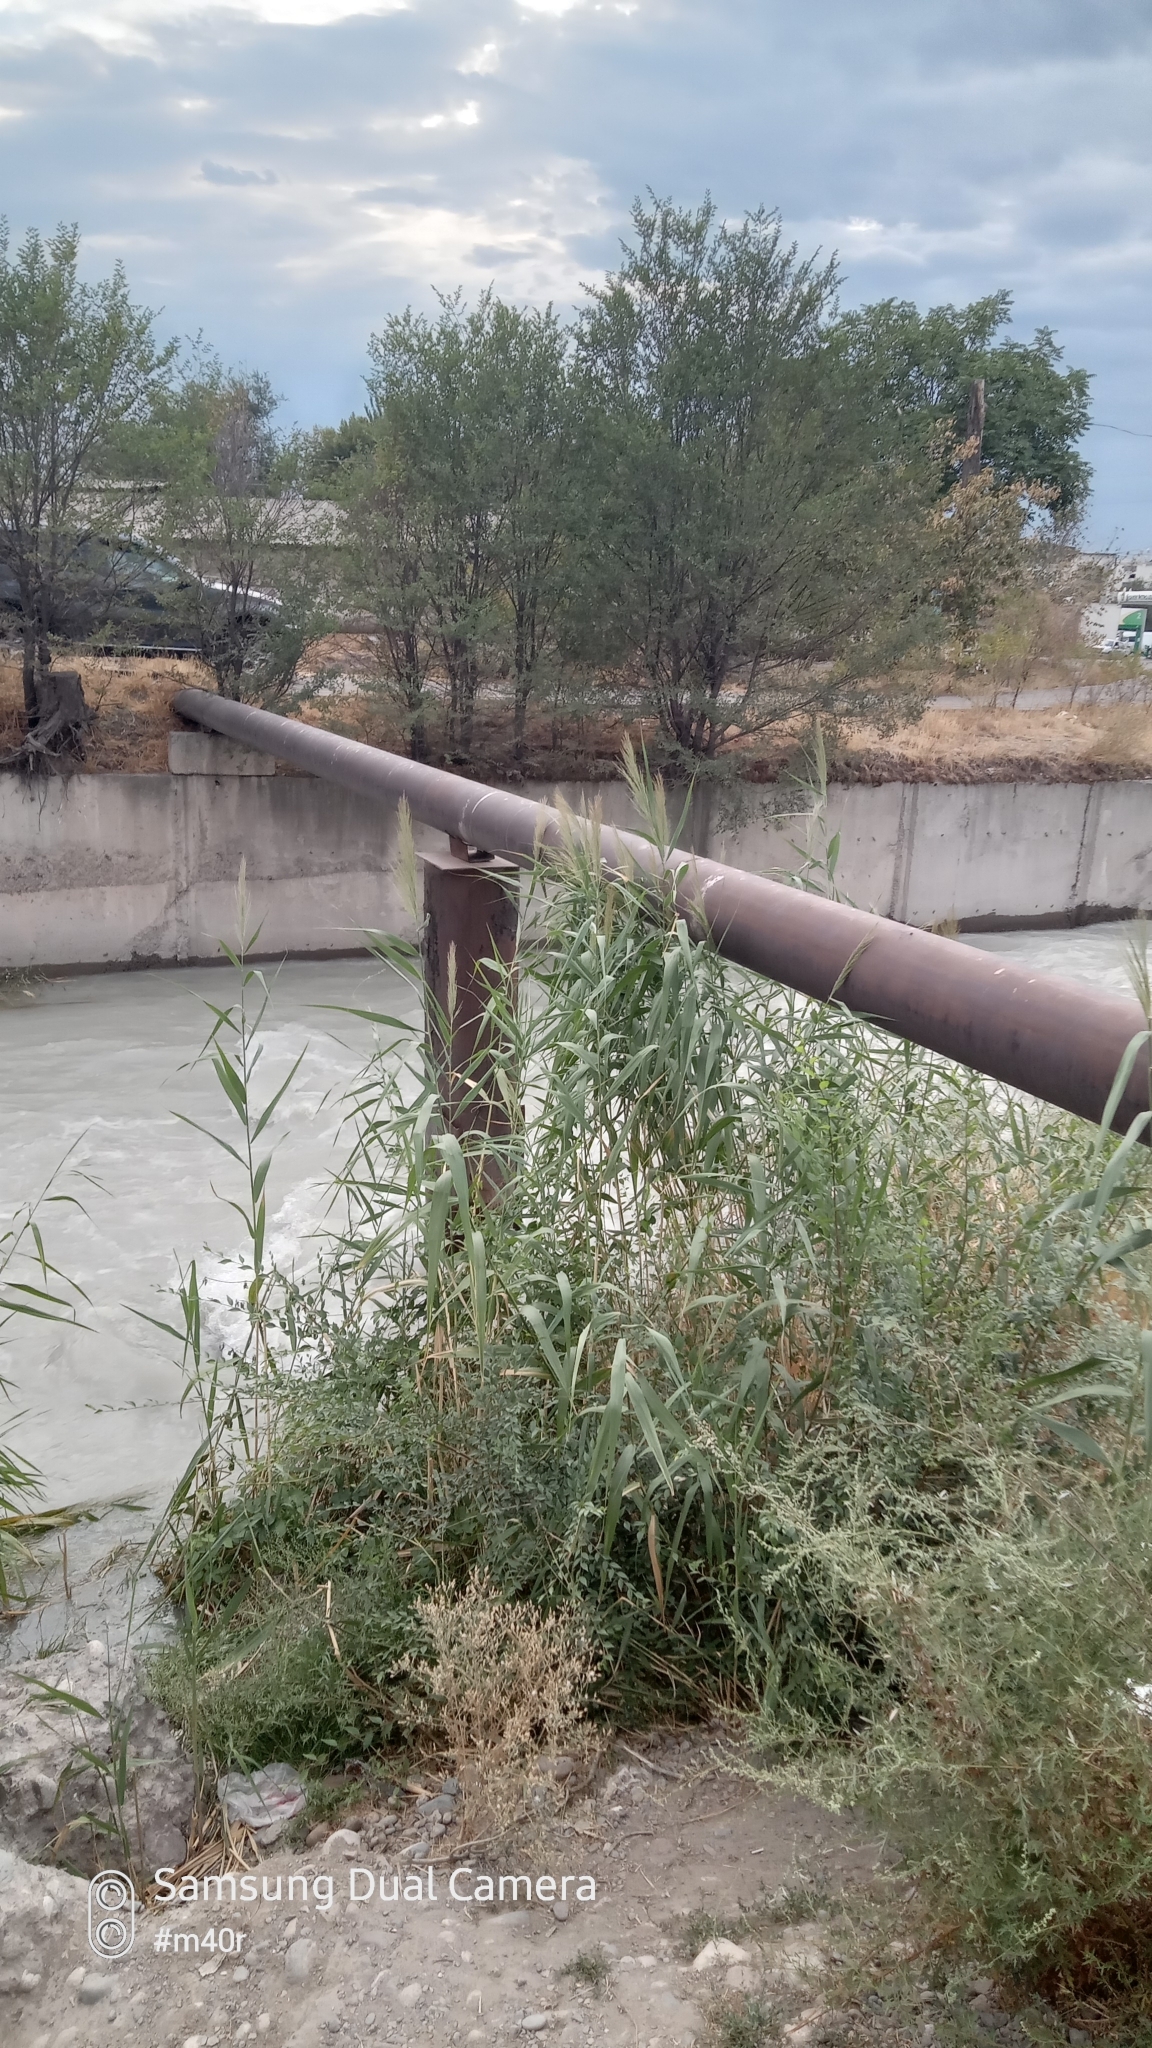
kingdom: Plantae
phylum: Tracheophyta
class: Liliopsida
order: Poales
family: Poaceae
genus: Phragmites
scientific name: Phragmites australis
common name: Common reed
